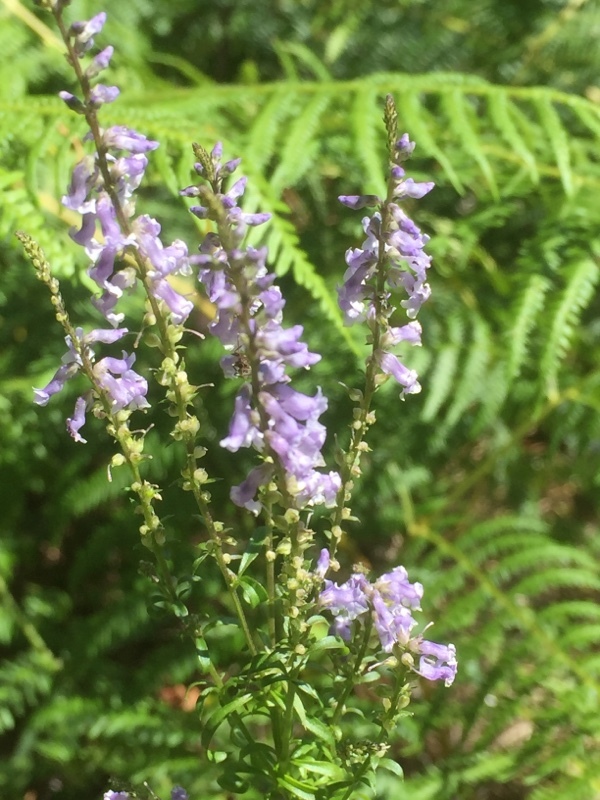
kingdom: Plantae
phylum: Tracheophyta
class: Magnoliopsida
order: Lamiales
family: Plantaginaceae
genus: Anarrhinum
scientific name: Anarrhinum bellidifolium
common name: Daisy-leaved toadflax
